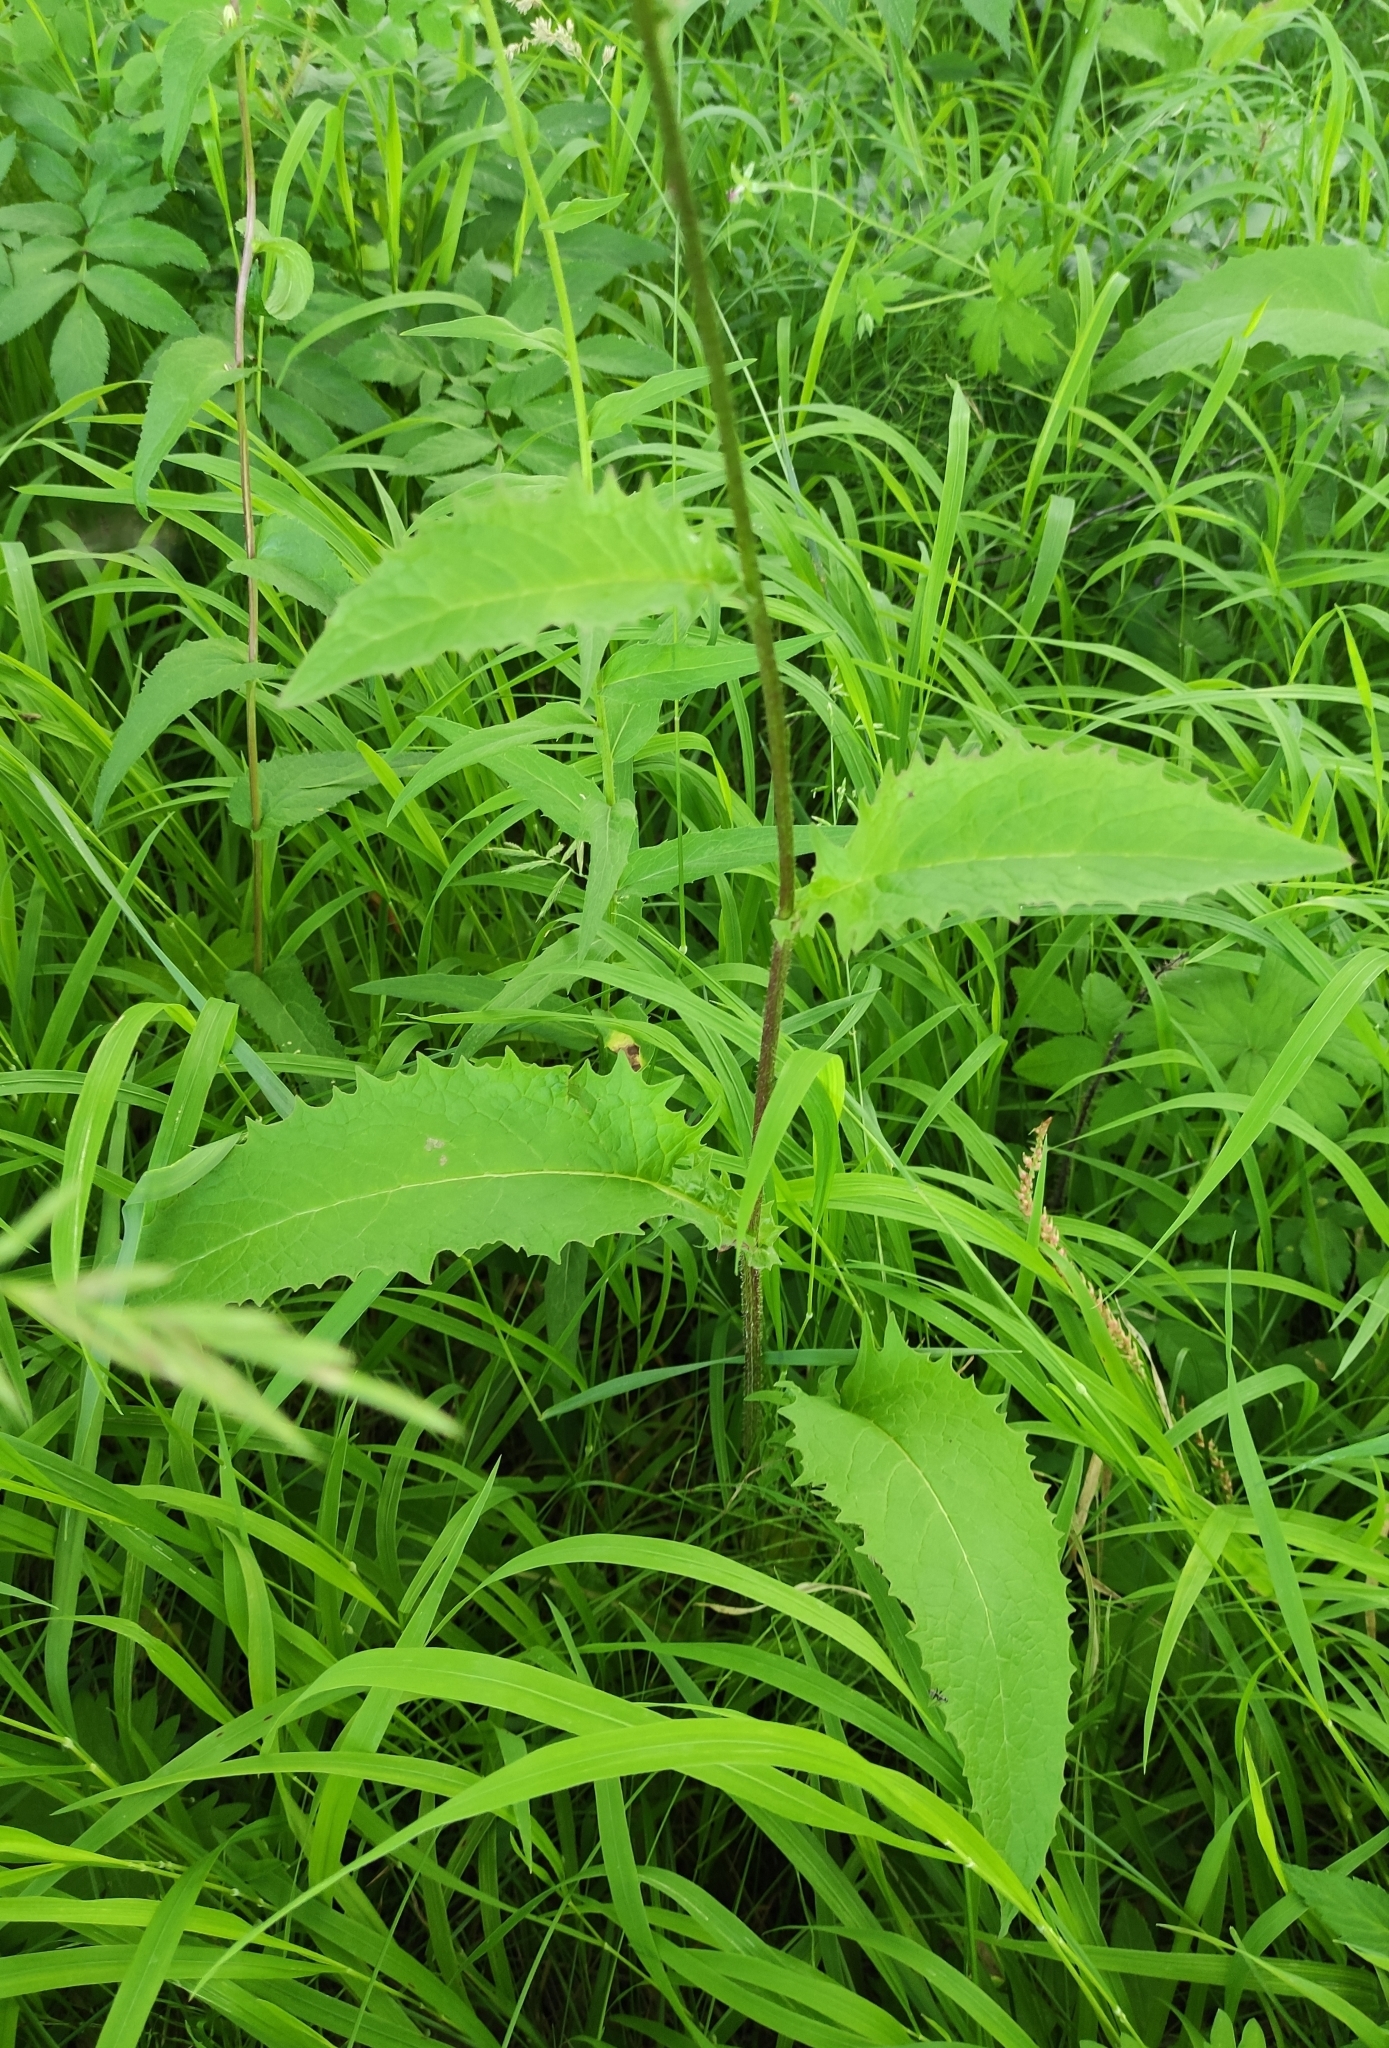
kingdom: Plantae
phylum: Tracheophyta
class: Magnoliopsida
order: Asterales
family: Asteraceae
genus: Crepis
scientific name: Crepis sibirica
